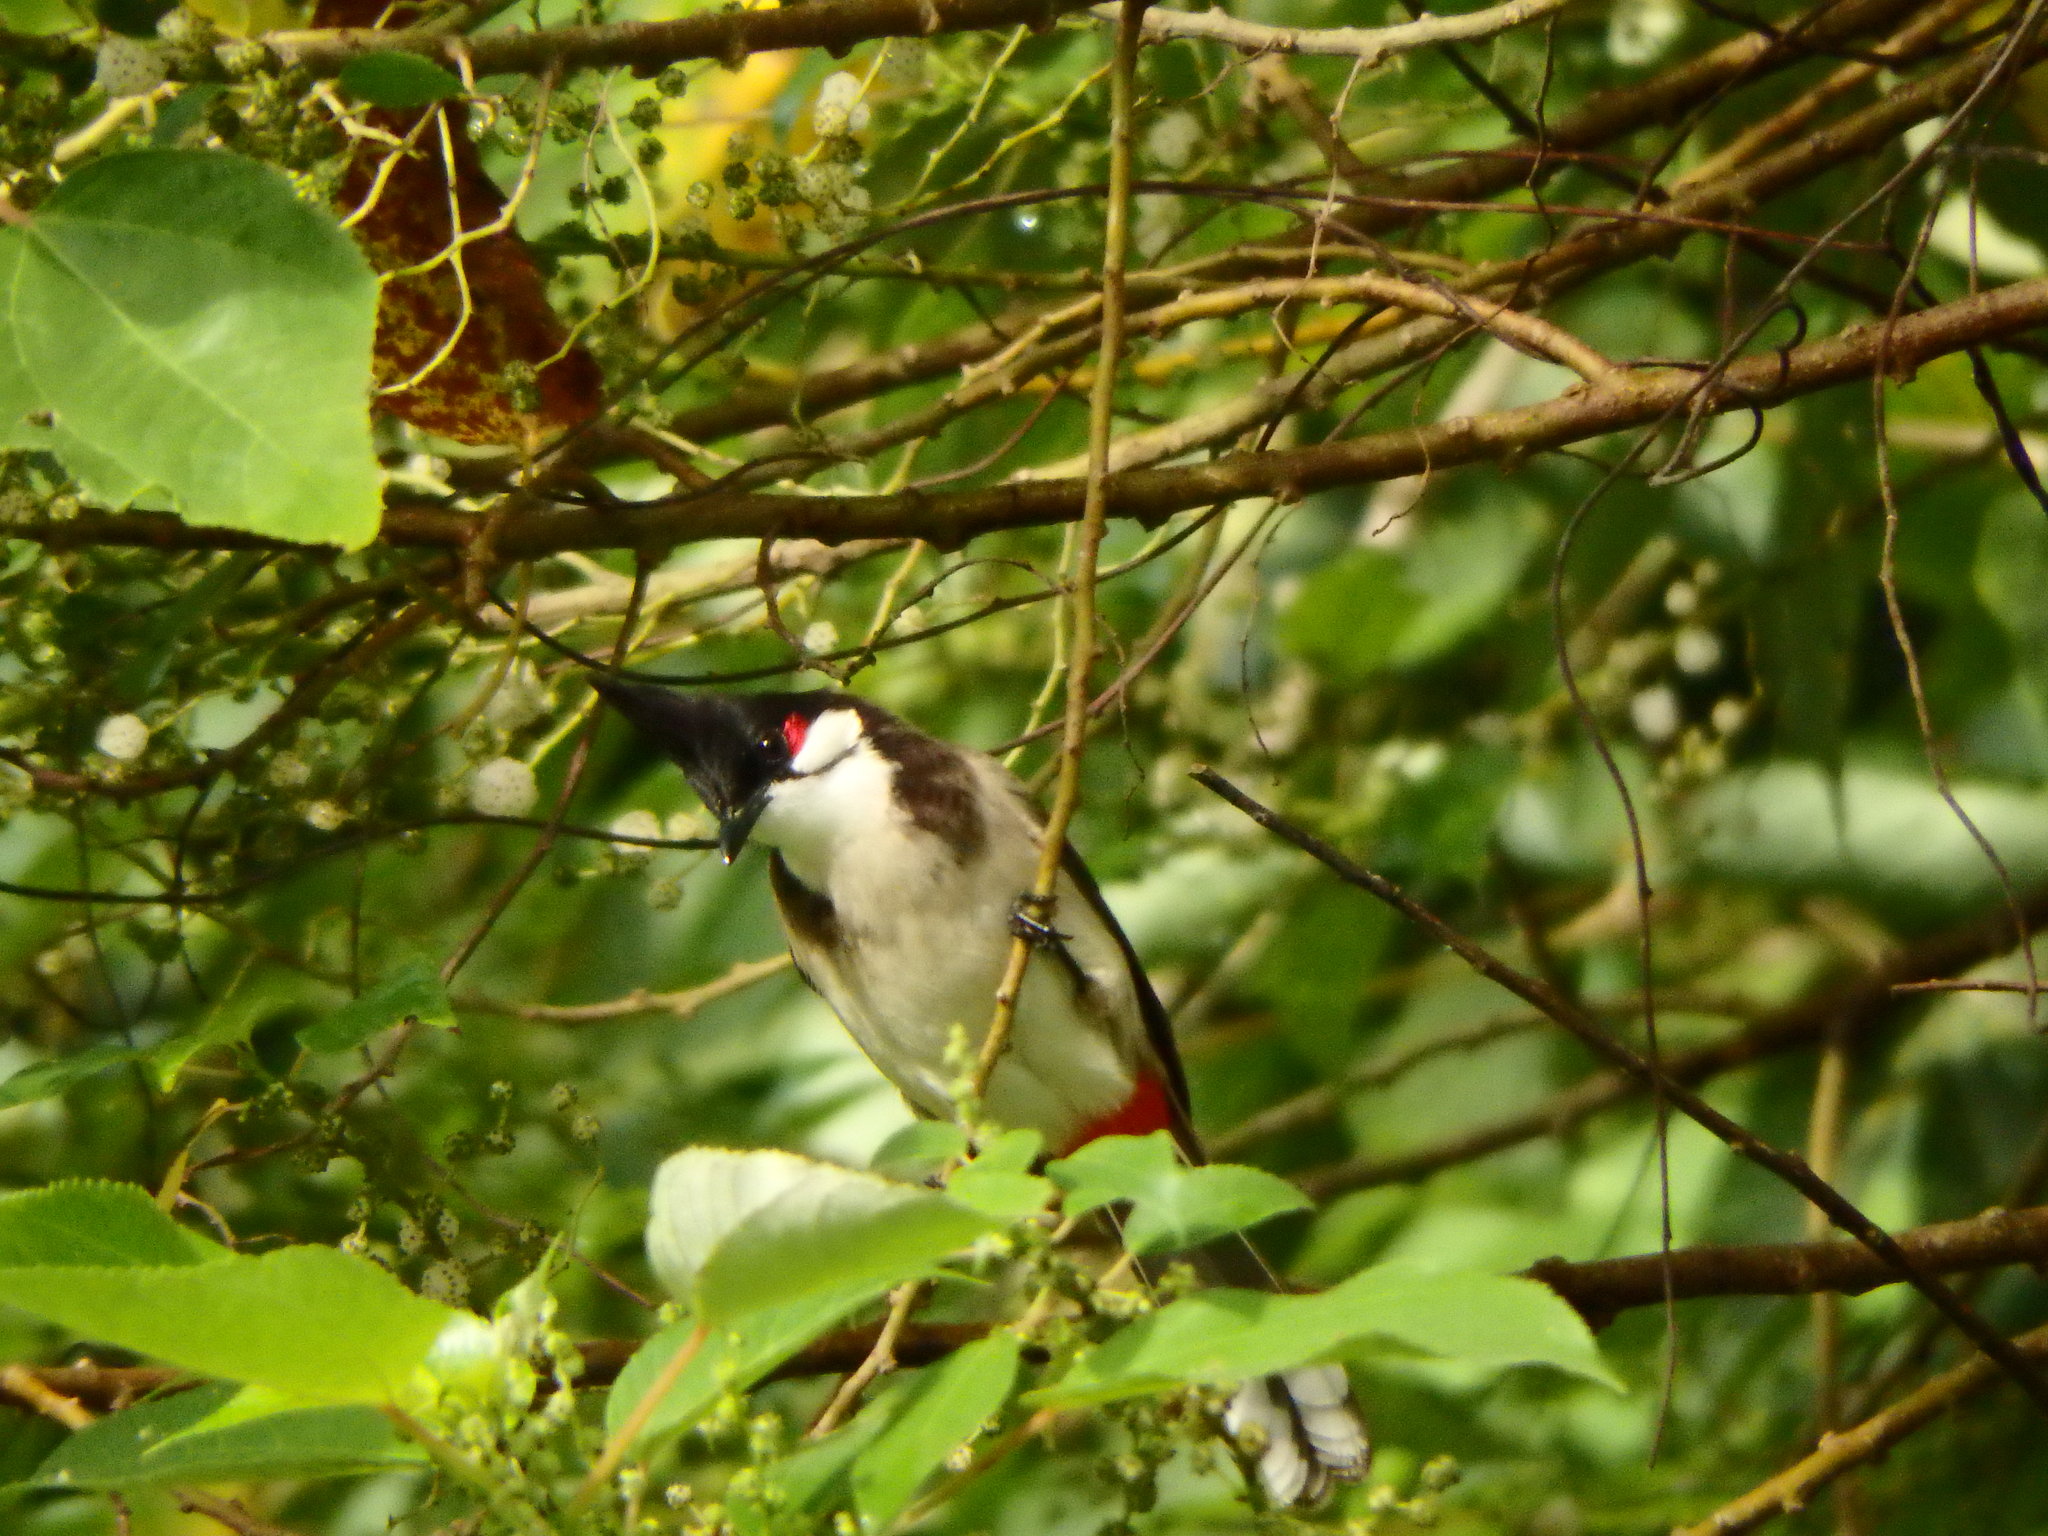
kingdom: Animalia
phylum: Chordata
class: Aves
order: Passeriformes
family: Pycnonotidae
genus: Pycnonotus
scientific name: Pycnonotus jocosus
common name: Red-whiskered bulbul
